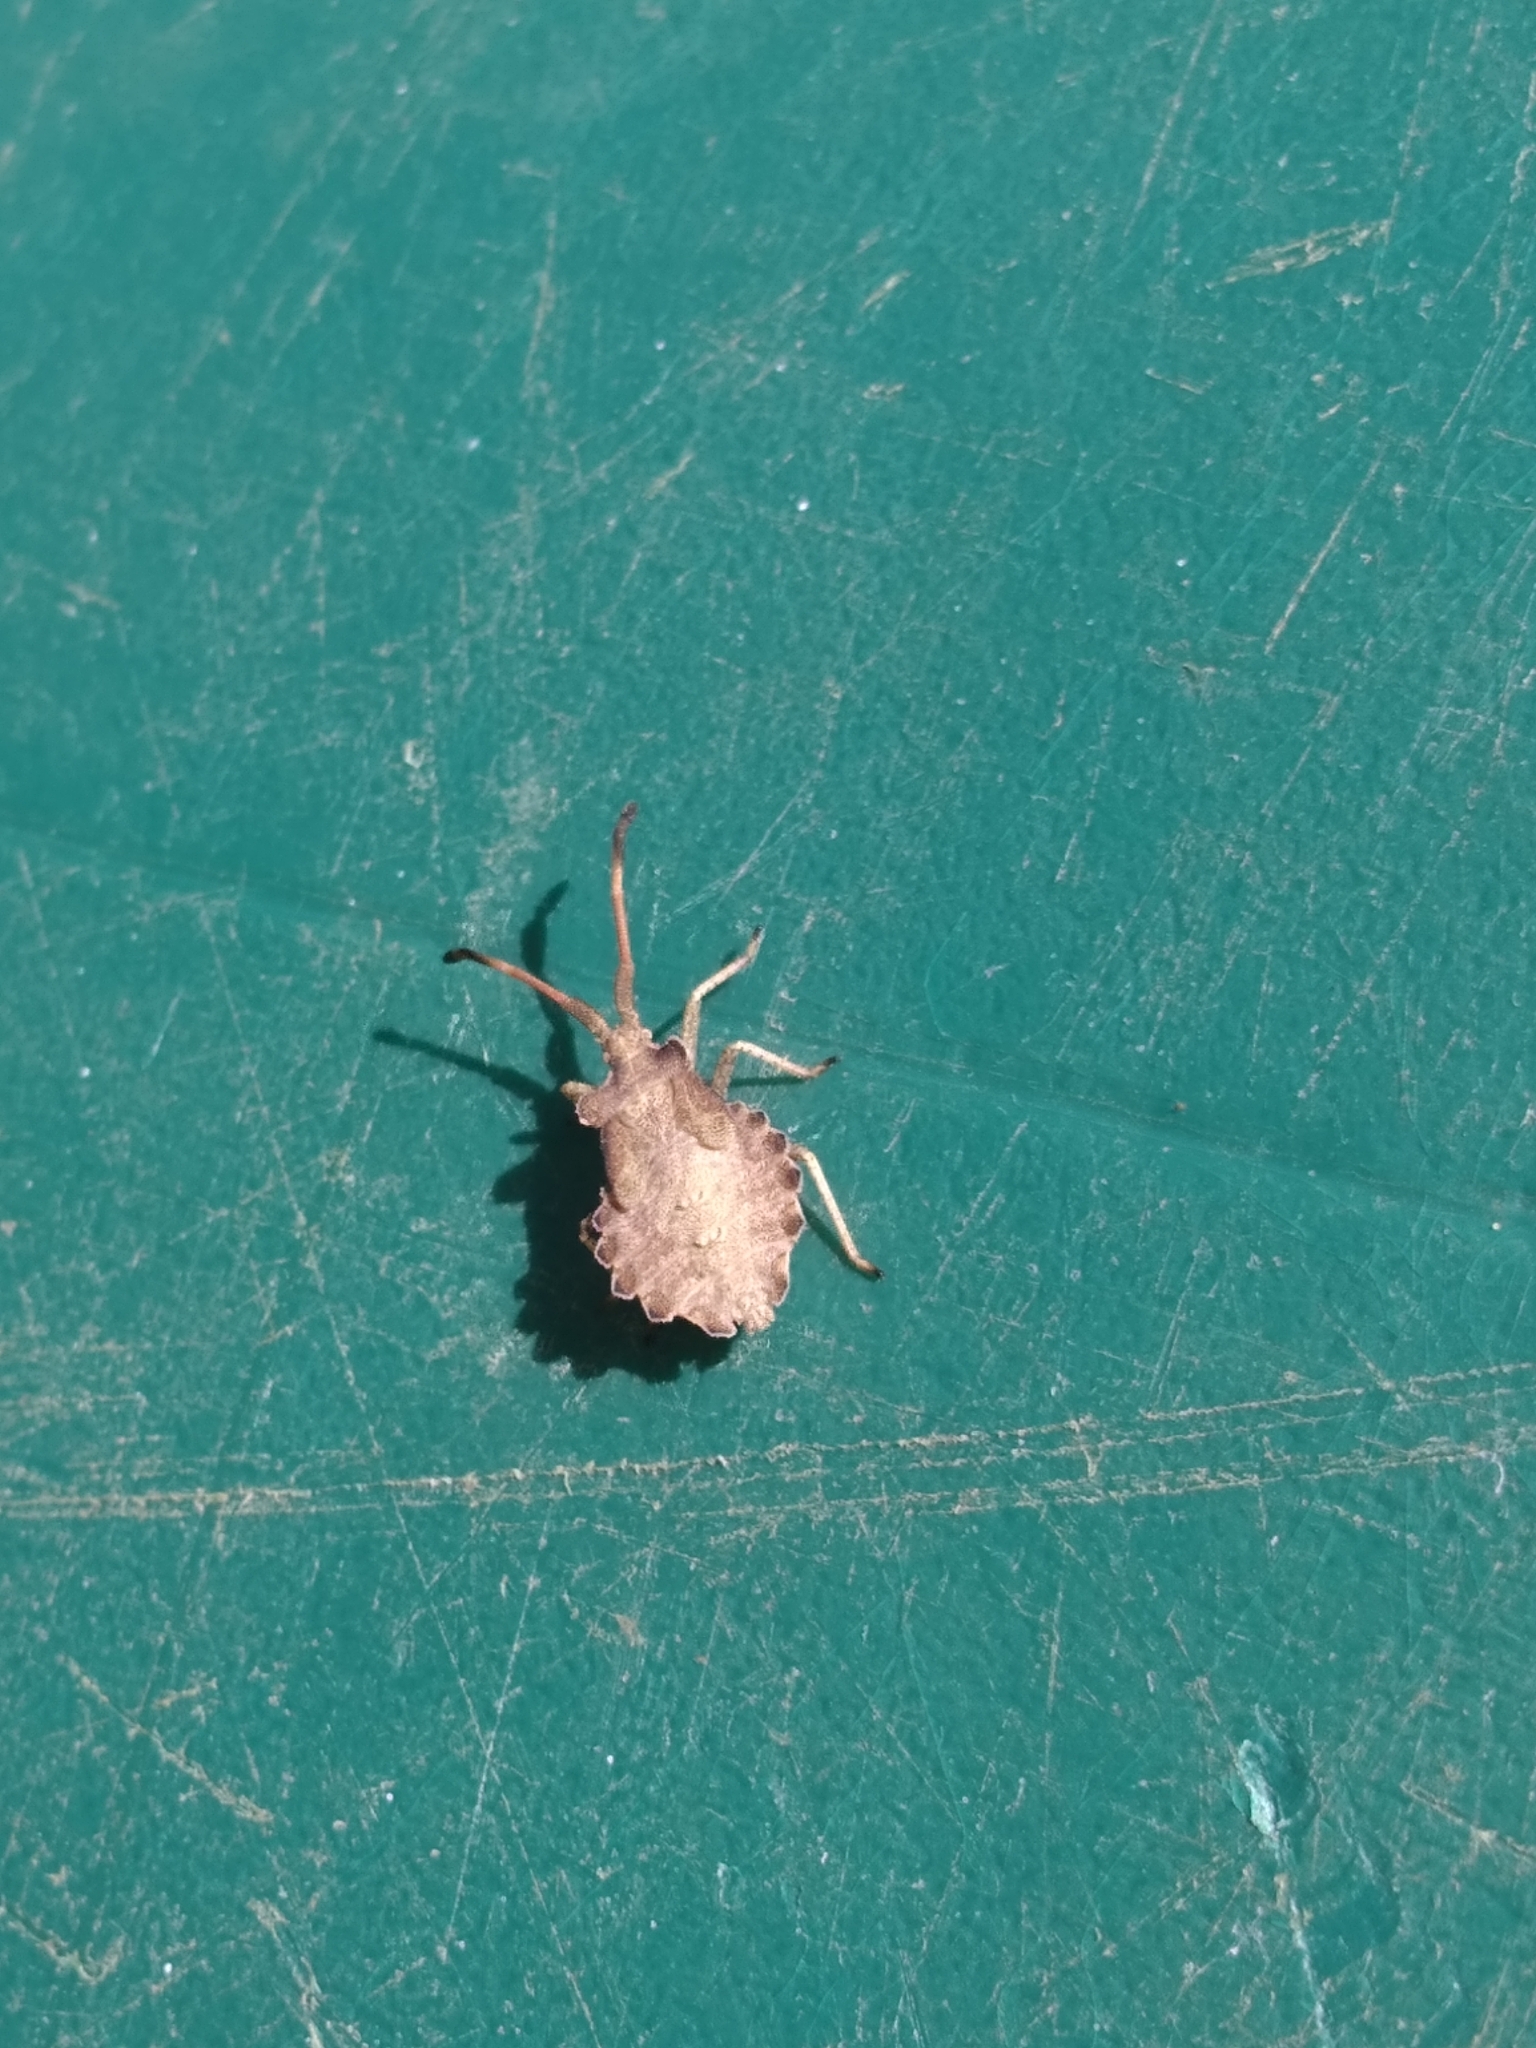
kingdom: Animalia
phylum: Arthropoda
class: Insecta
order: Hemiptera
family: Coreidae
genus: Enoplops
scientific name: Enoplops scapha
